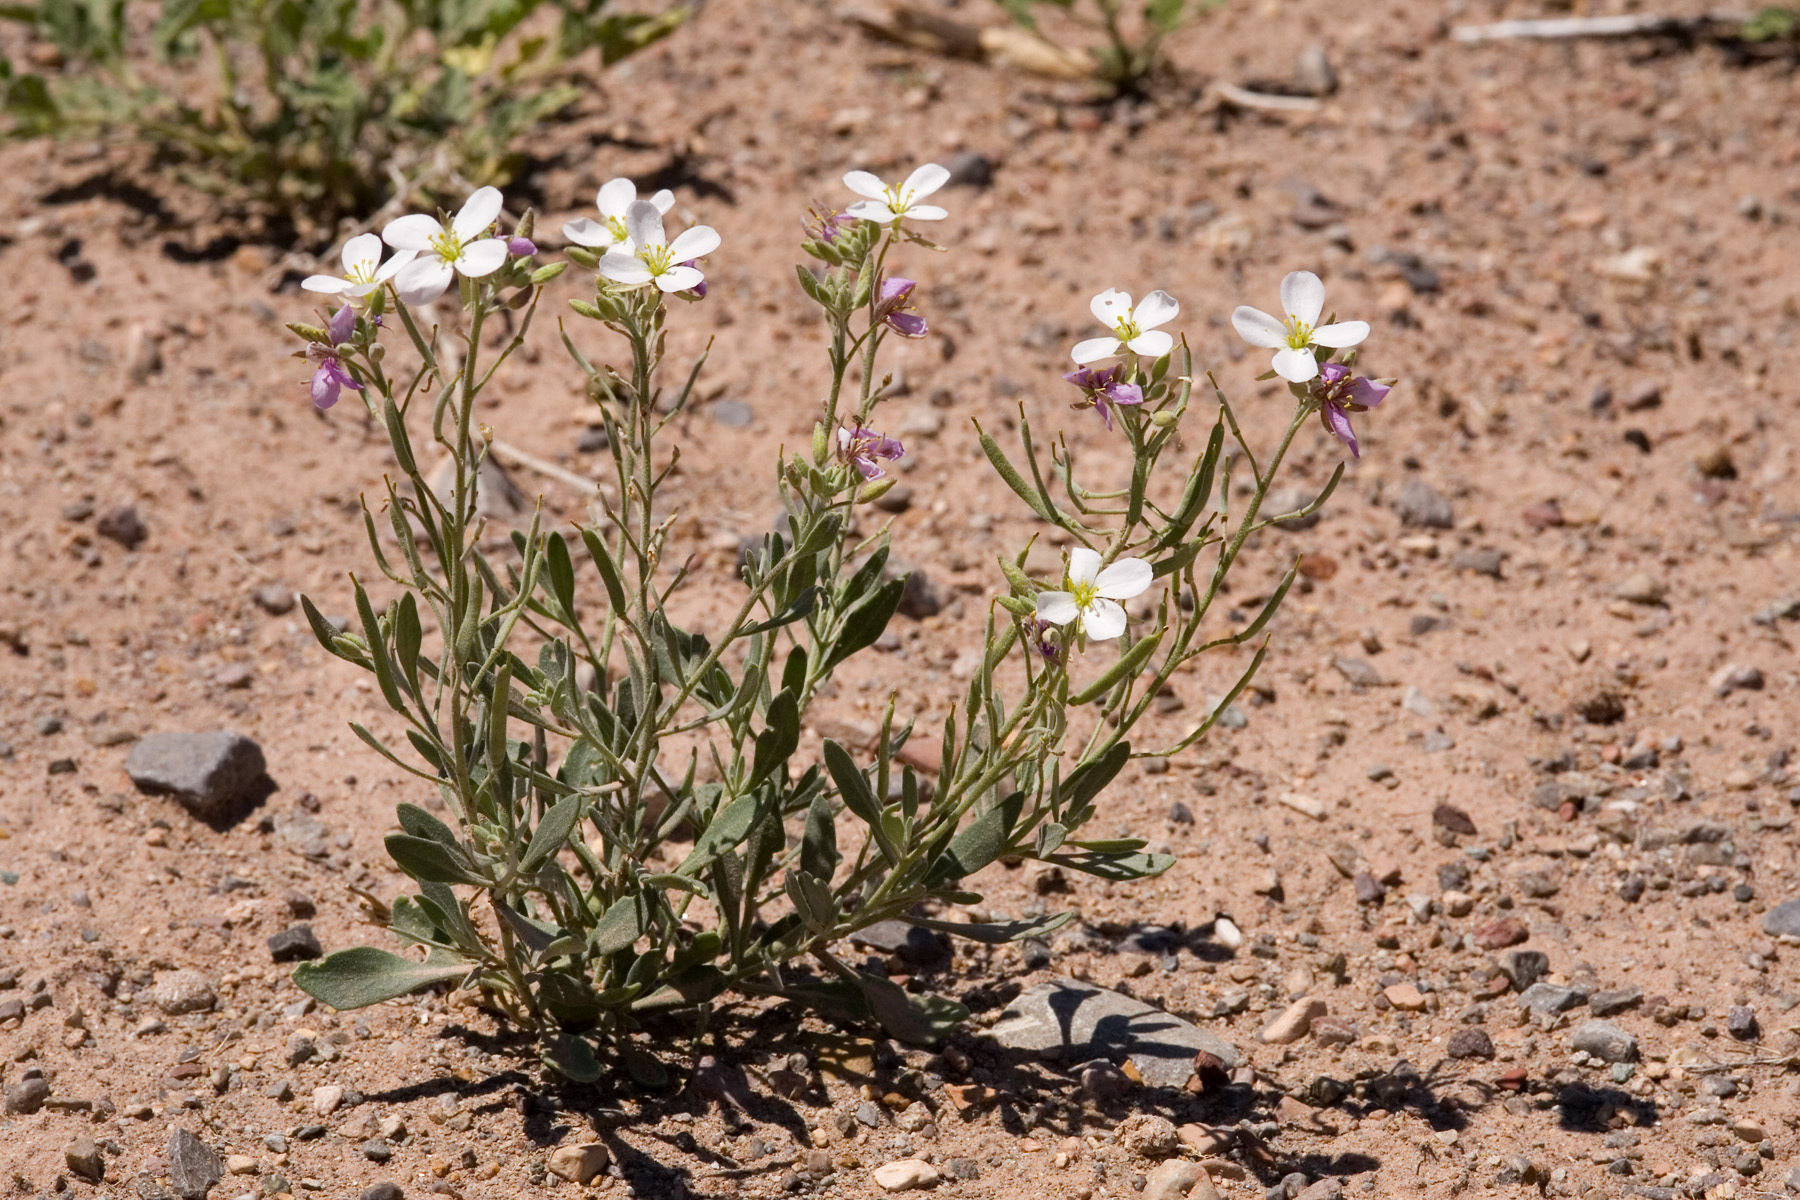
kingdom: Plantae
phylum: Tracheophyta
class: Magnoliopsida
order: Brassicales
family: Brassicaceae
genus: Nerisyrenia
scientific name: Nerisyrenia camporum
